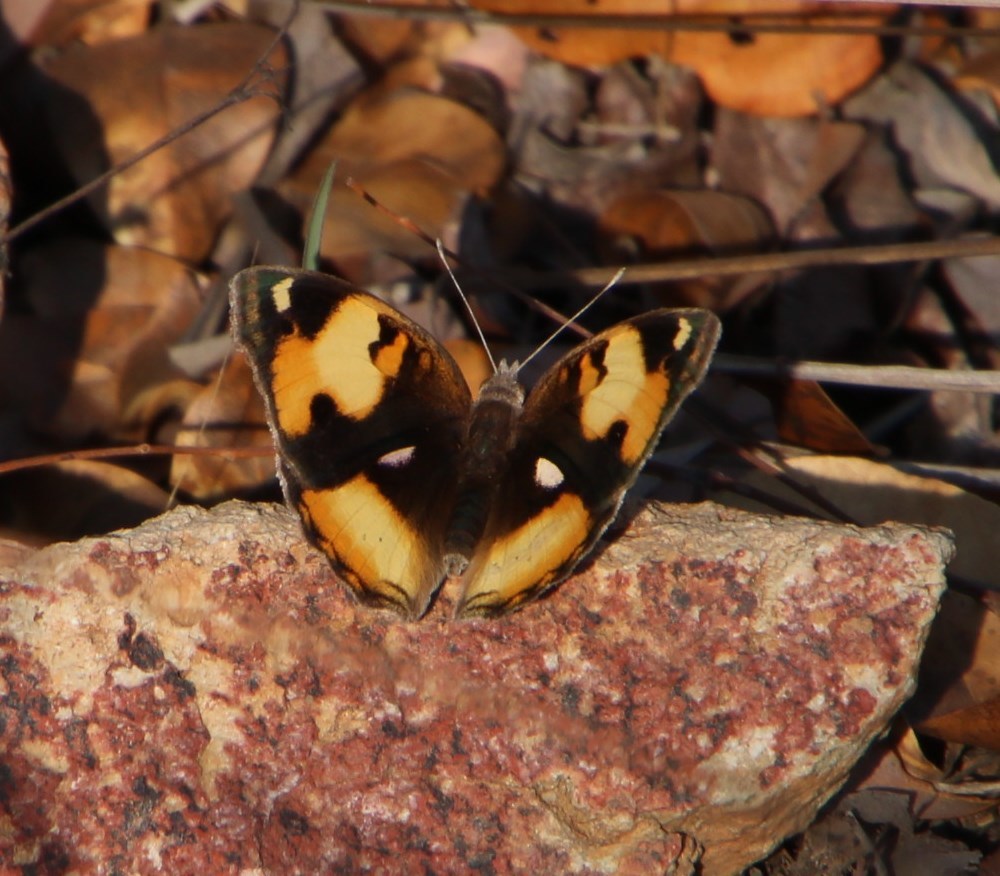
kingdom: Animalia
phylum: Arthropoda
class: Insecta
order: Lepidoptera
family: Nymphalidae
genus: Junonia
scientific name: Junonia hierta
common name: Yellow pansy
